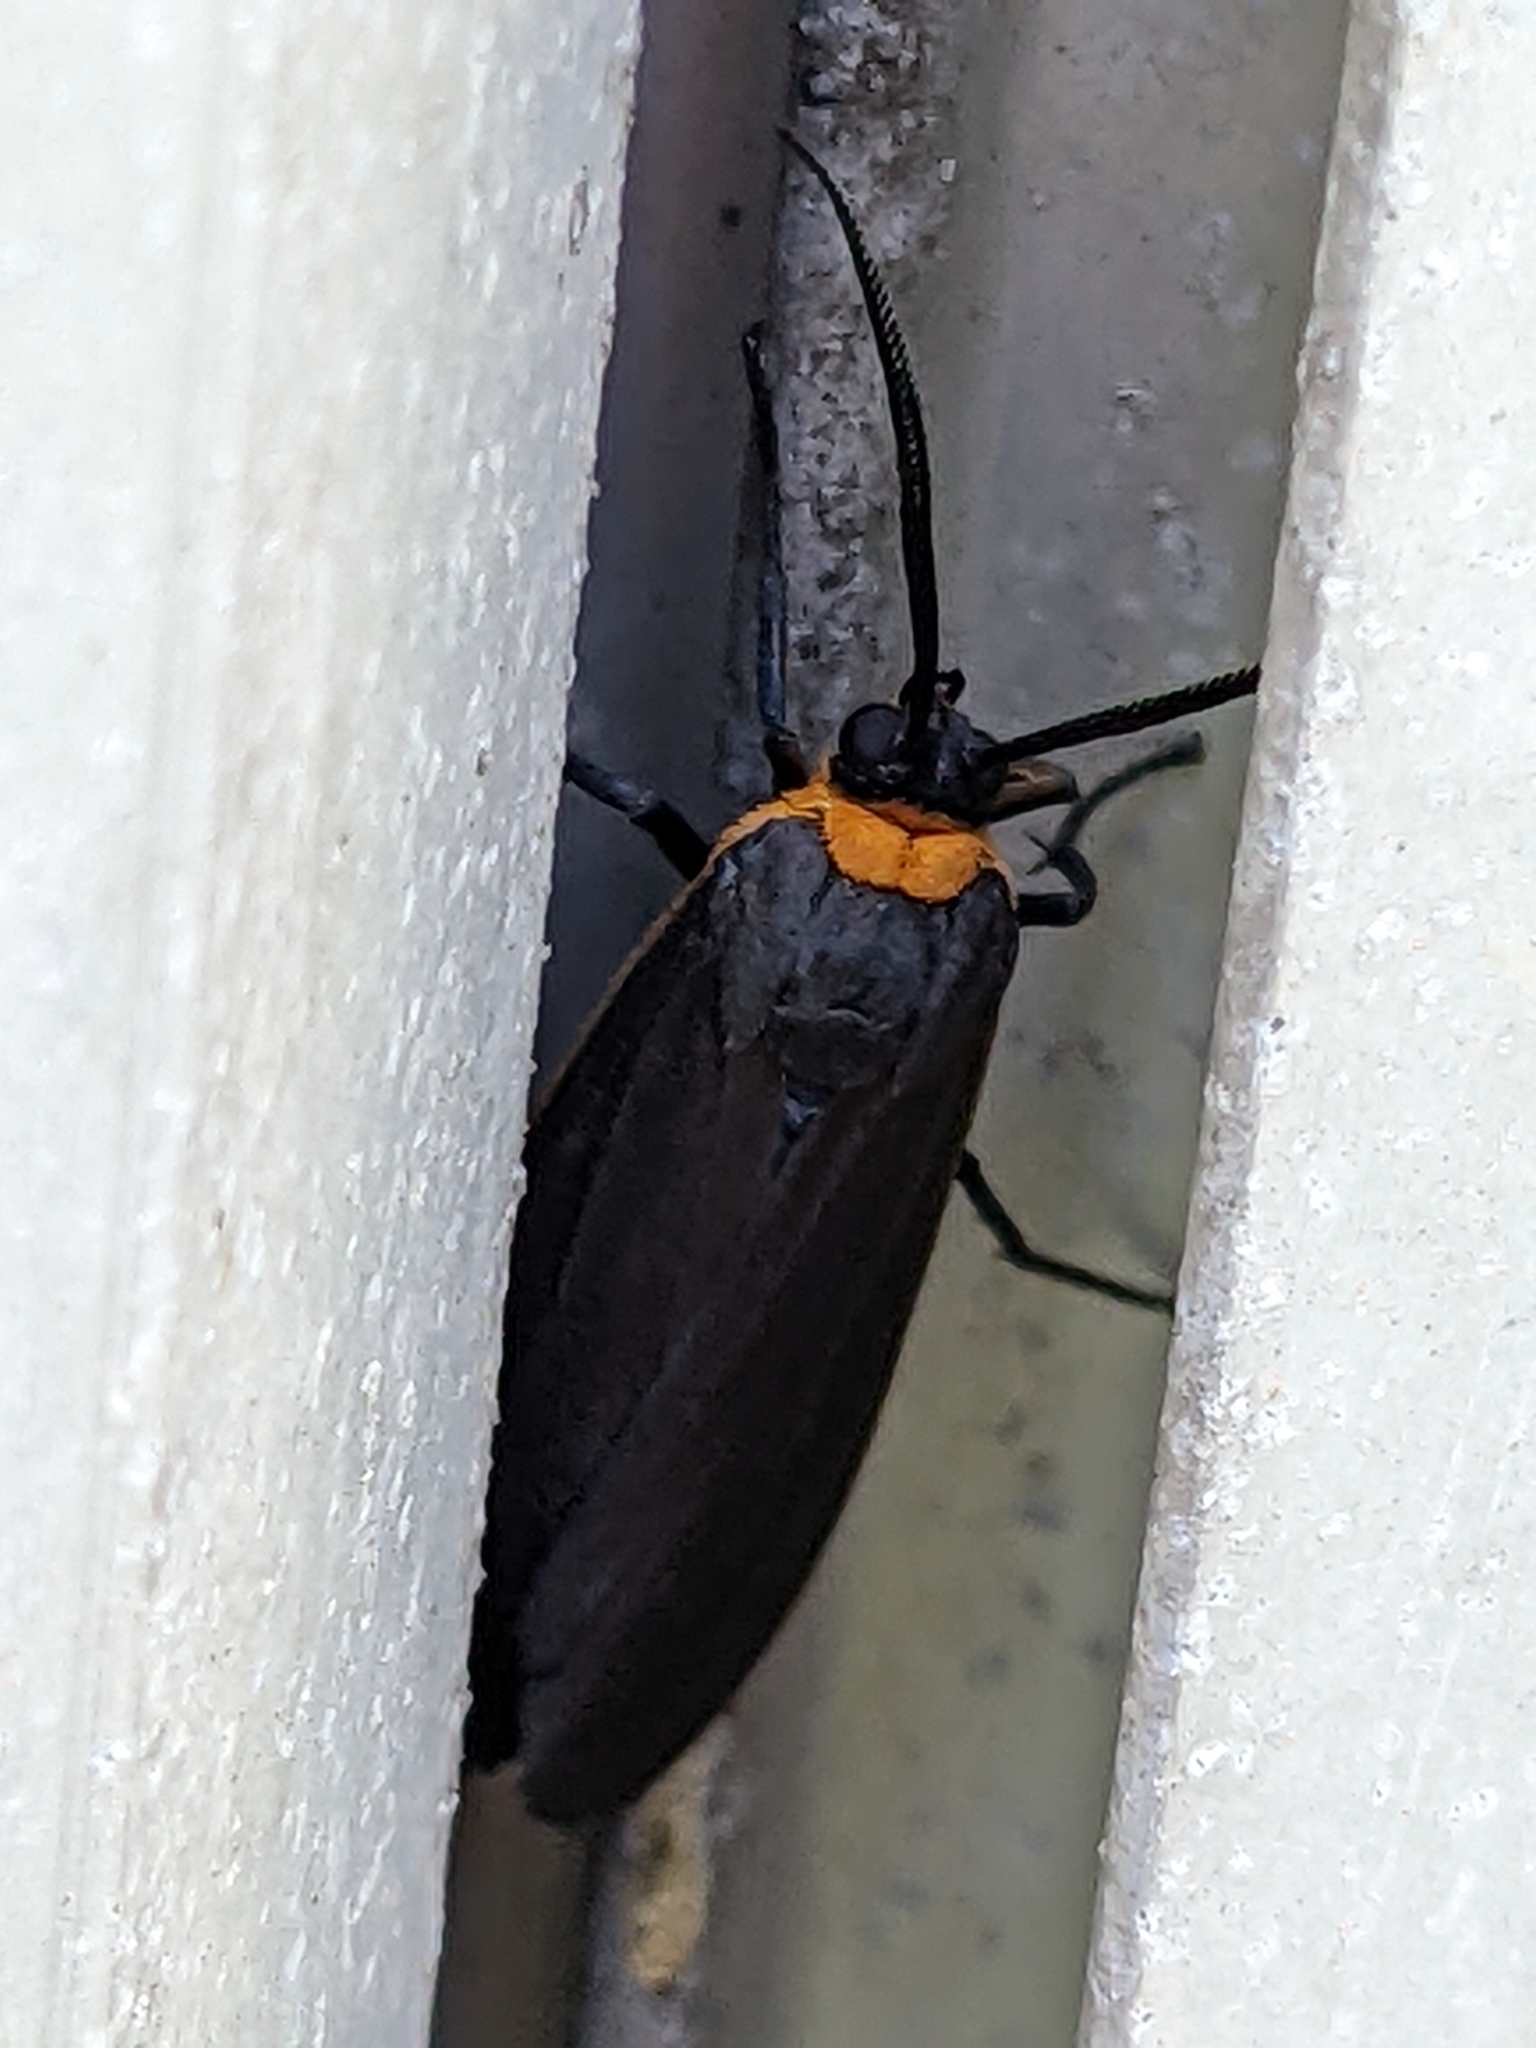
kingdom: Animalia
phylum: Arthropoda
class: Insecta
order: Lepidoptera
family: Erebidae
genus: Cisseps
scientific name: Cisseps fulvicollis
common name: Yellow-collared scape moth
